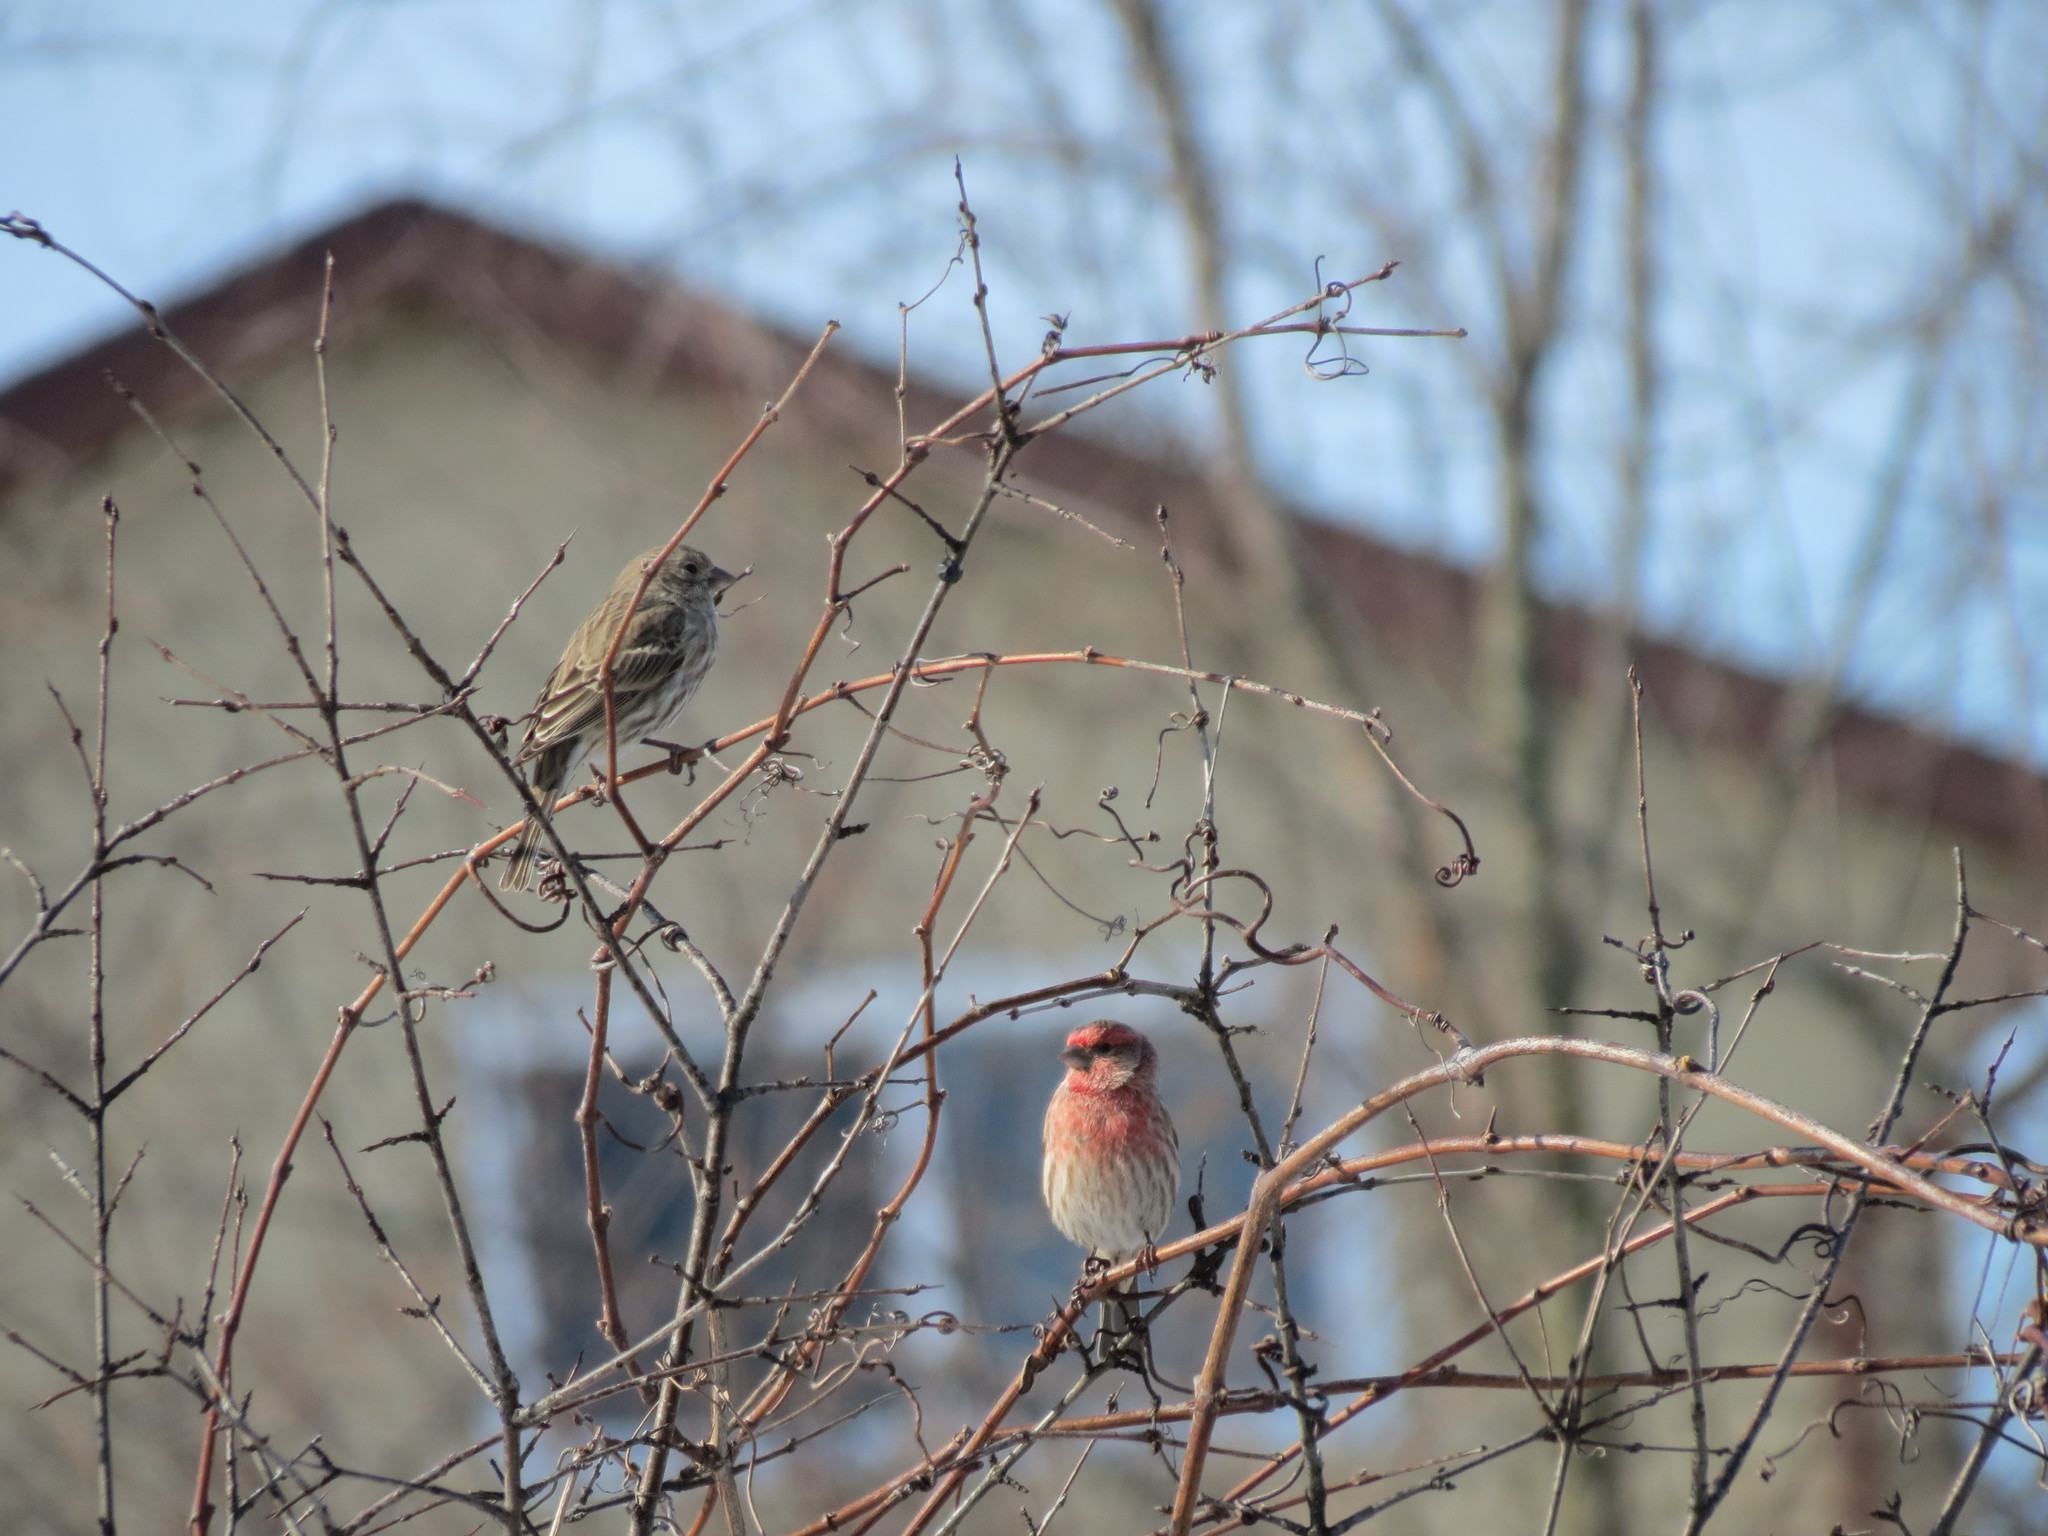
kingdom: Animalia
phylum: Chordata
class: Aves
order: Passeriformes
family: Fringillidae
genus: Haemorhous
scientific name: Haemorhous mexicanus
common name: House finch
